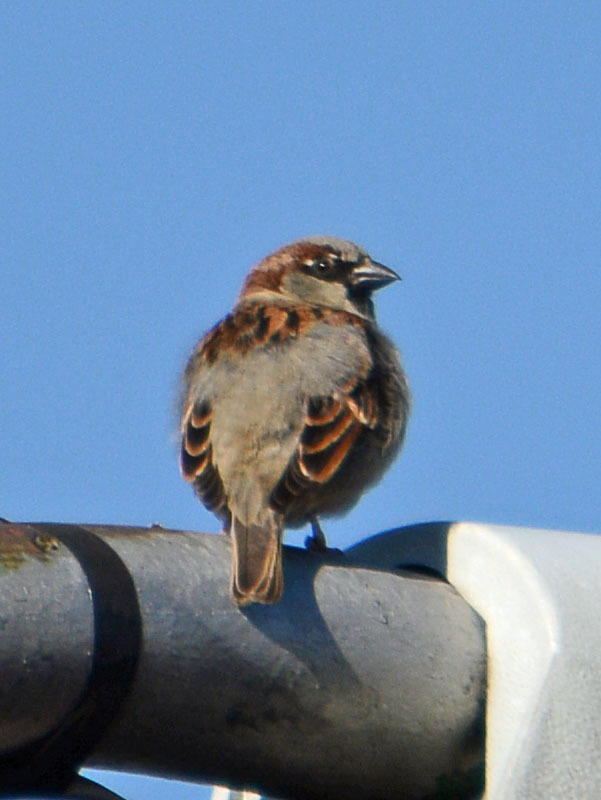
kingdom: Animalia
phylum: Chordata
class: Aves
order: Passeriformes
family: Passeridae
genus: Passer
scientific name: Passer domesticus
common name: House sparrow
